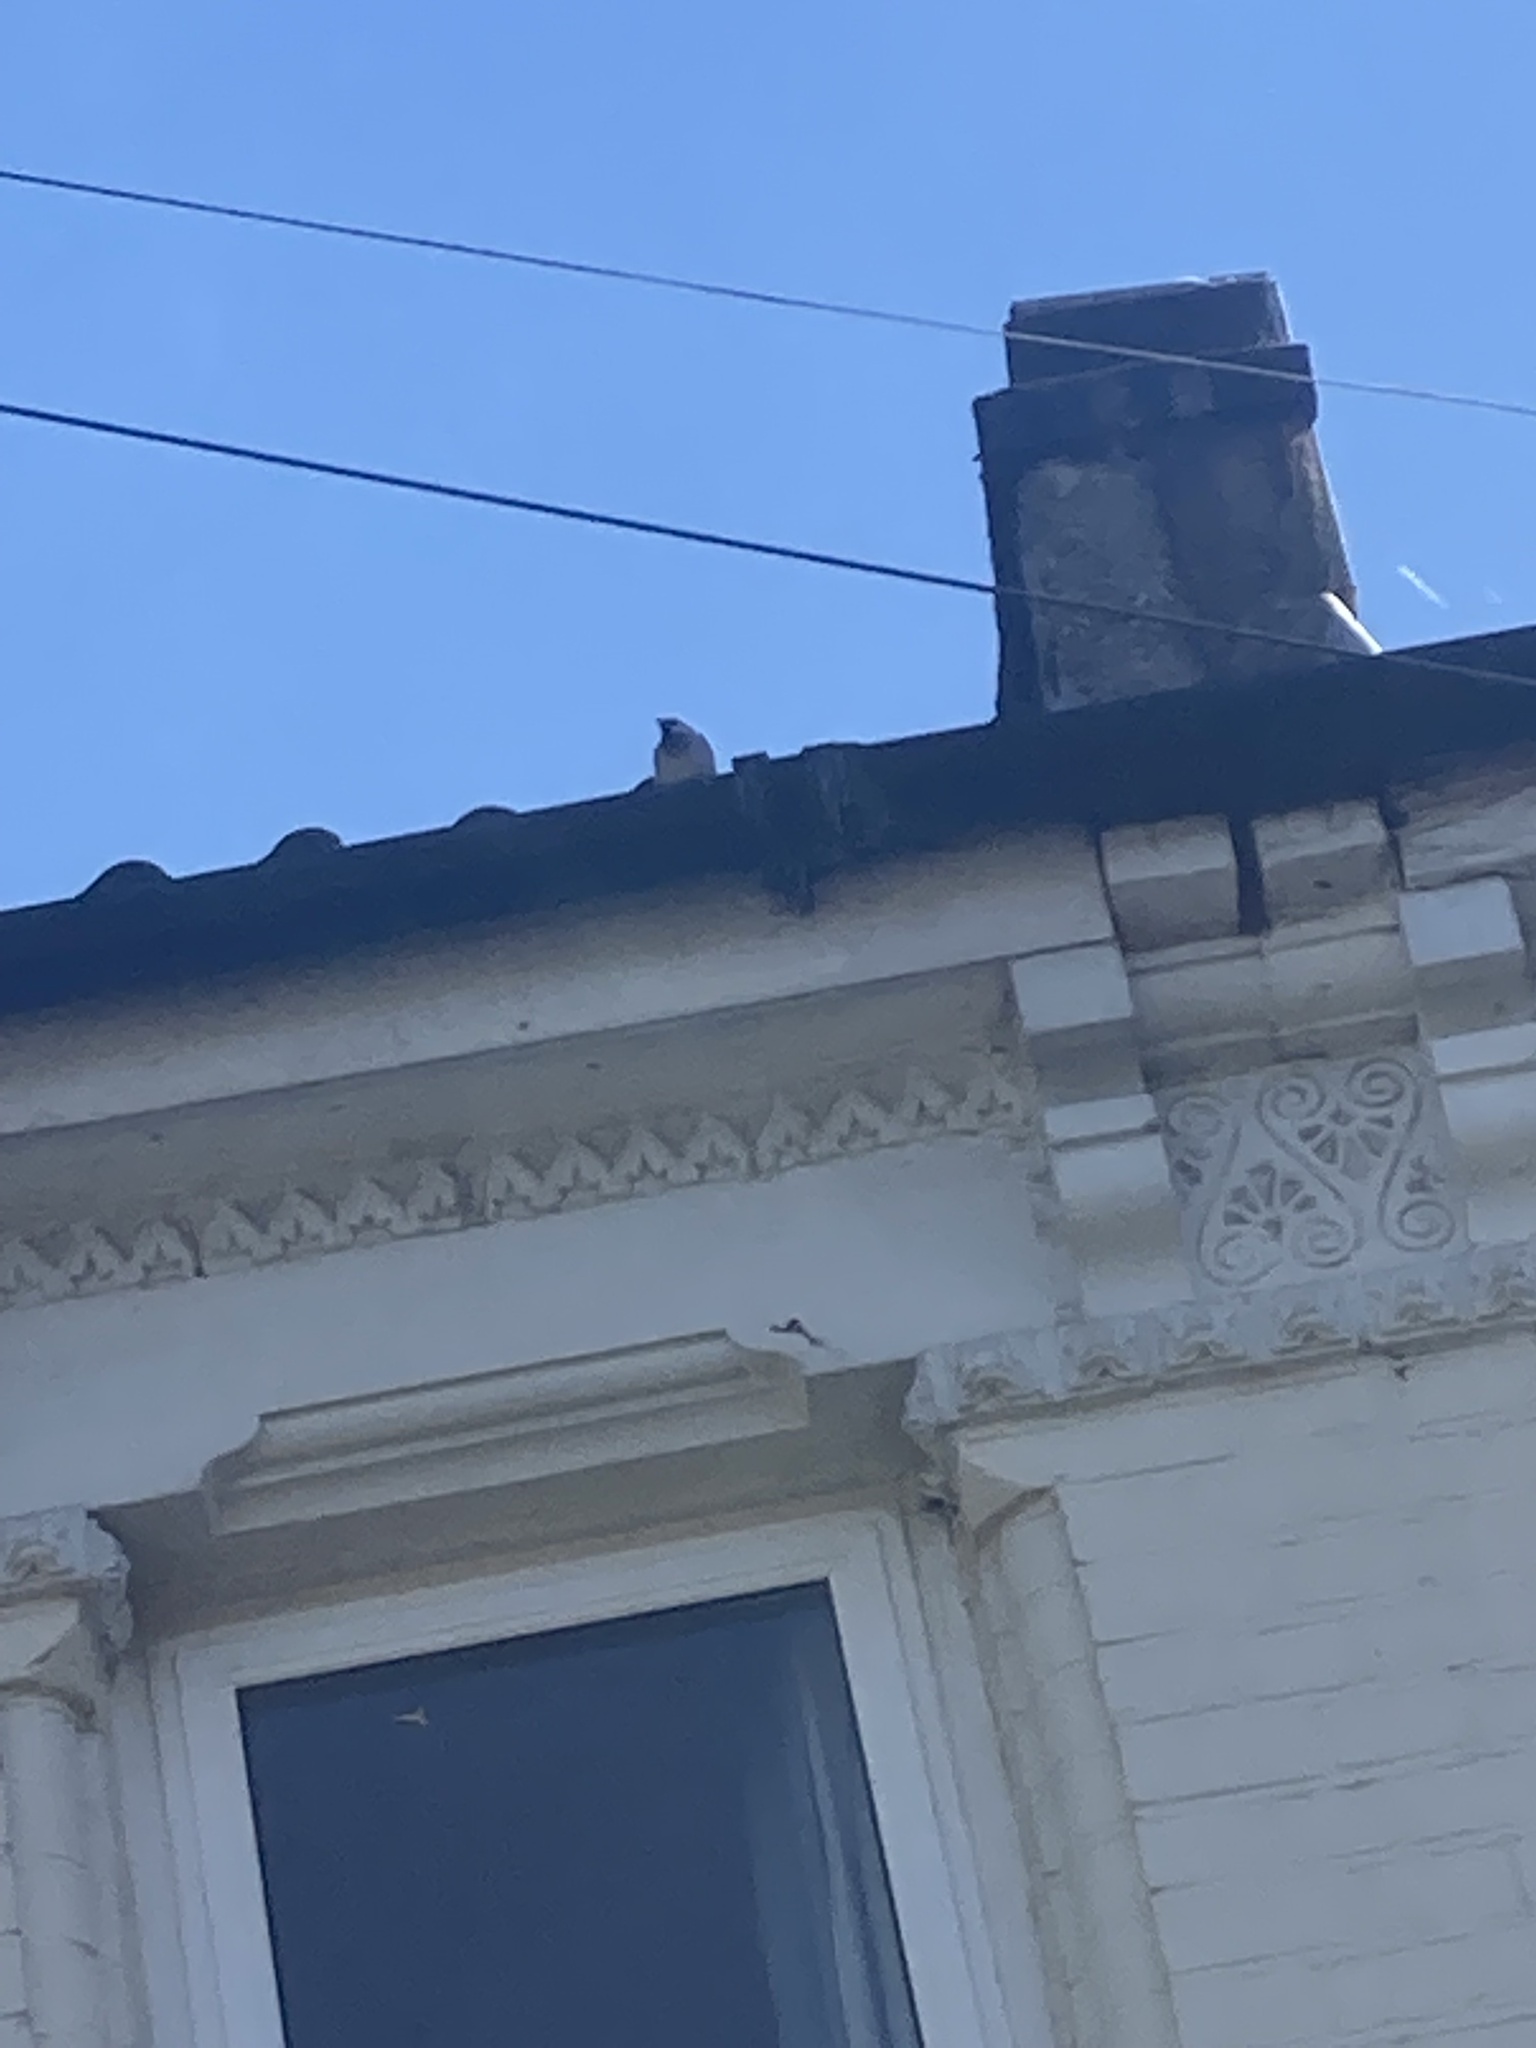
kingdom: Animalia
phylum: Chordata
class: Aves
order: Passeriformes
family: Passeridae
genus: Passer
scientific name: Passer domesticus
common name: House sparrow
